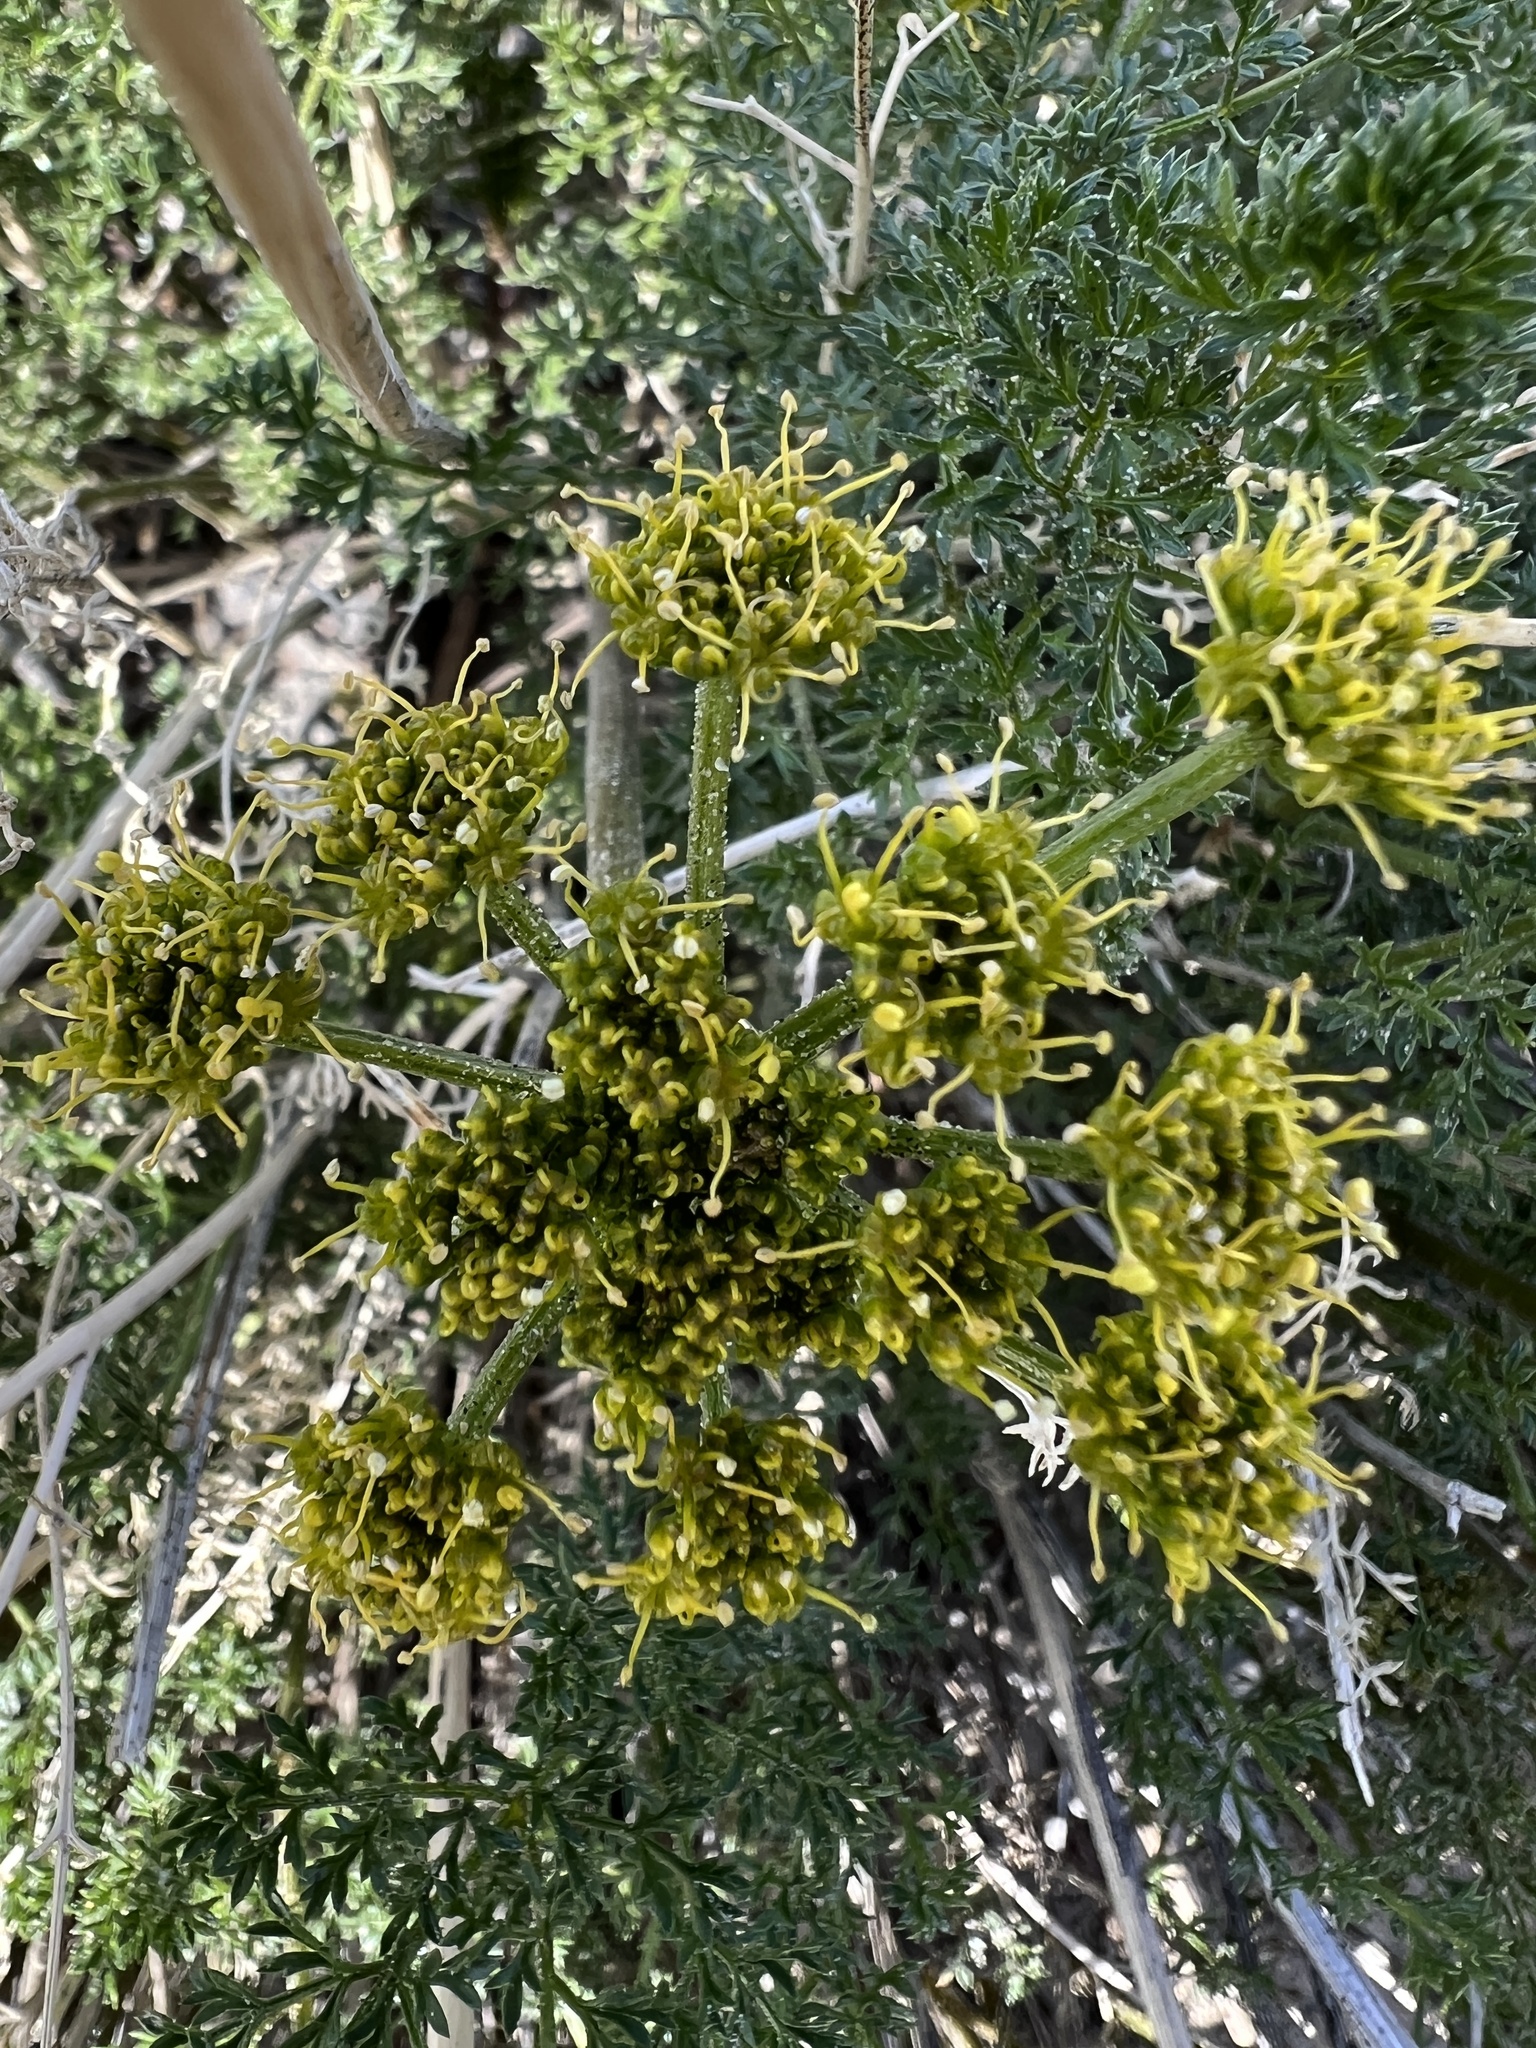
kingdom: Plantae
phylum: Tracheophyta
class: Magnoliopsida
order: Apiales
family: Apiaceae
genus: Pteryxia
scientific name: Pteryxia terebinthina
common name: Turpentine wavewing
